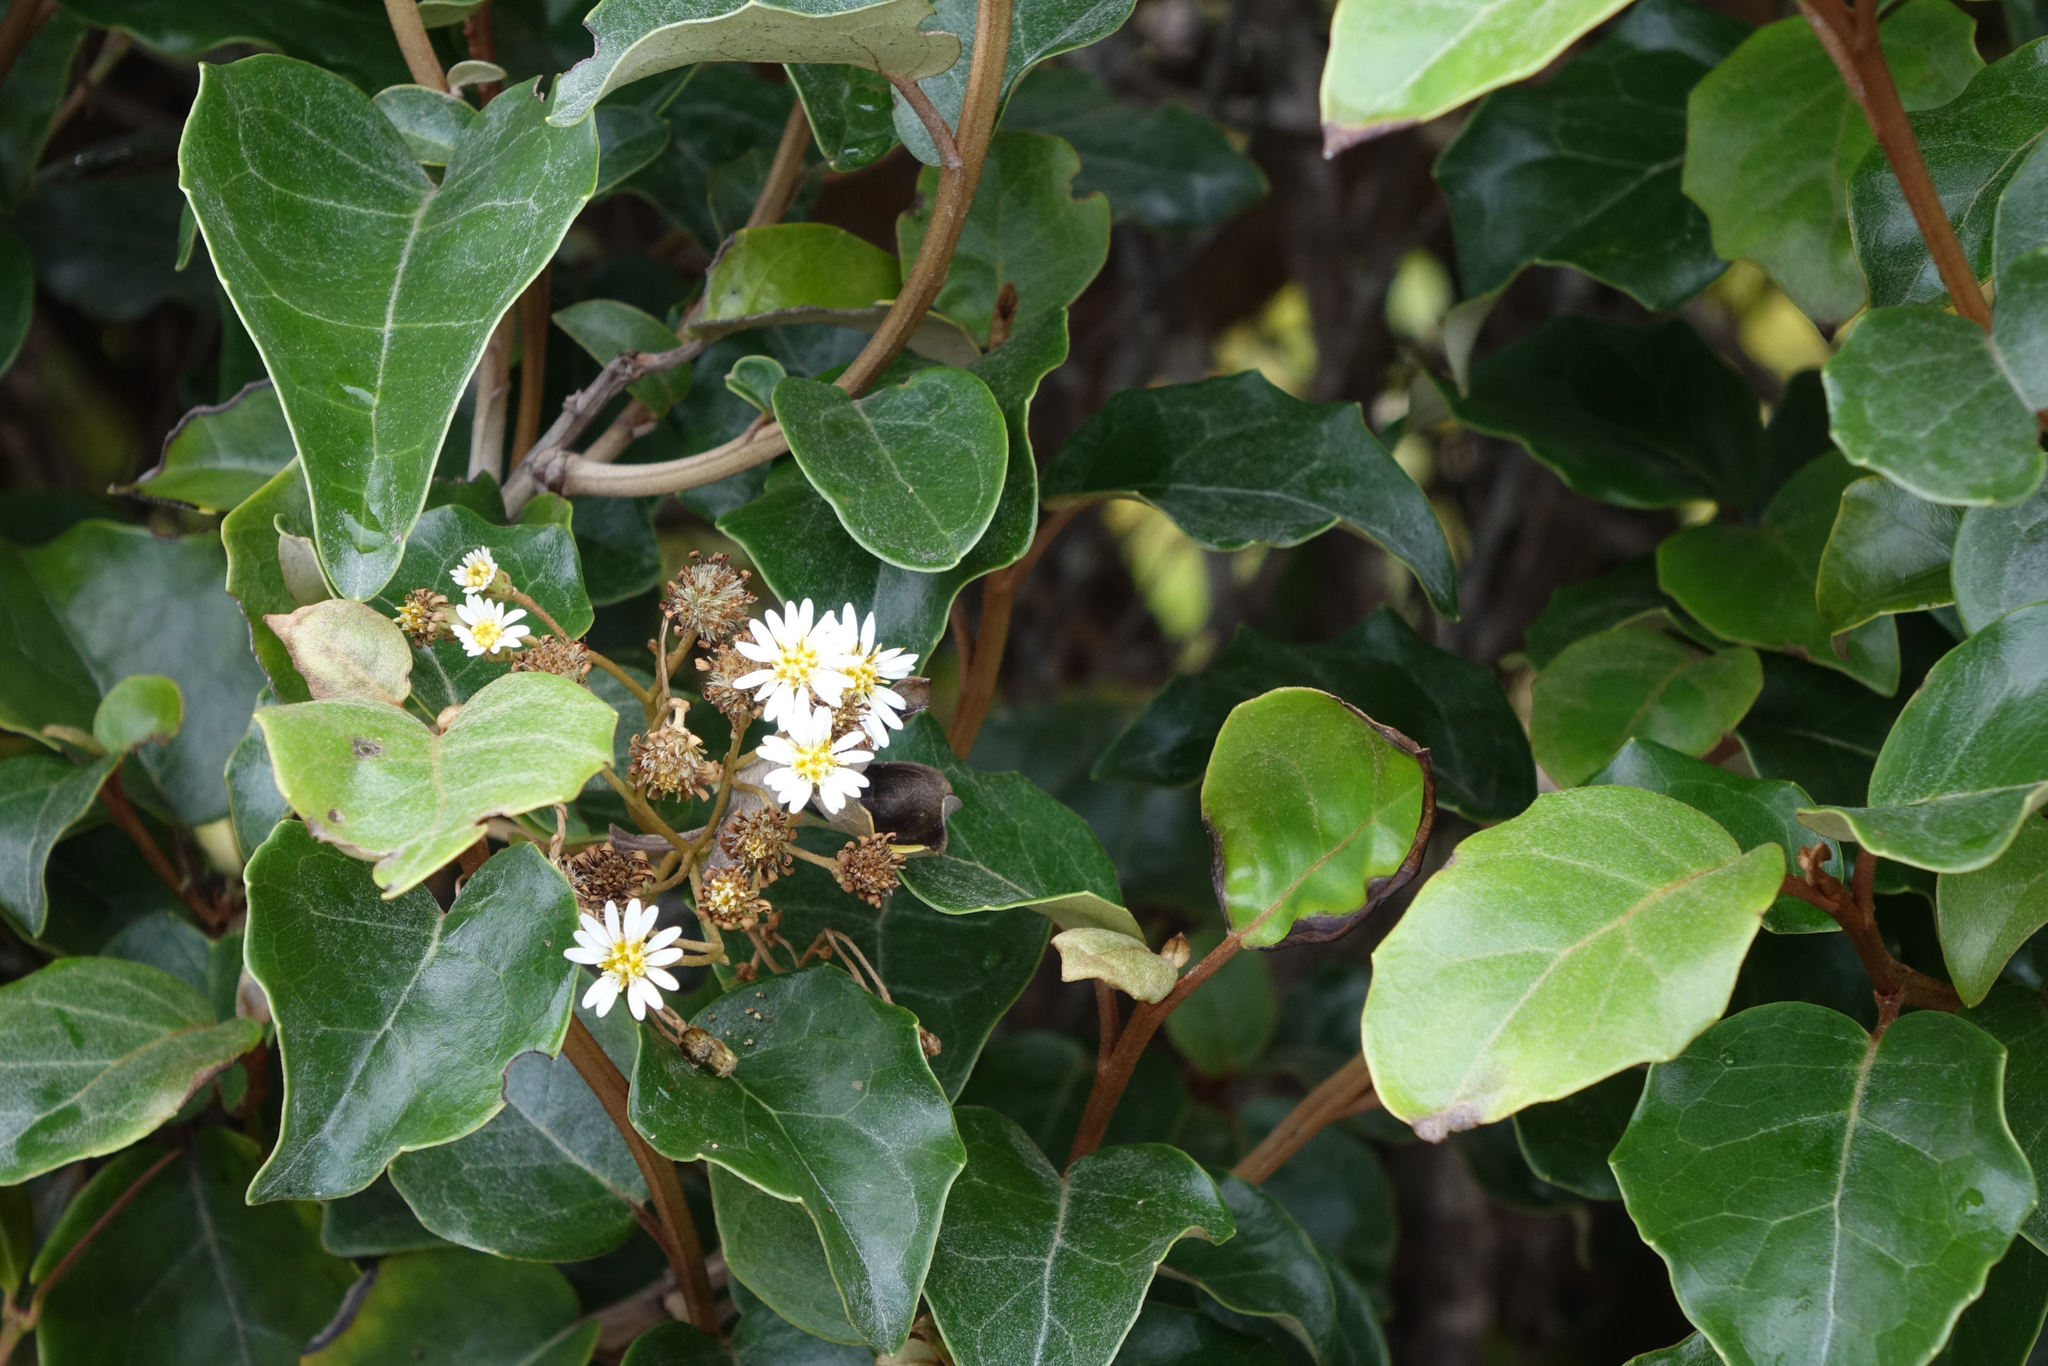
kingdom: Plantae
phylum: Tracheophyta
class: Magnoliopsida
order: Asterales
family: Asteraceae
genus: Olearia
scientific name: Olearia arborescens
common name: Glossy tree daisy
